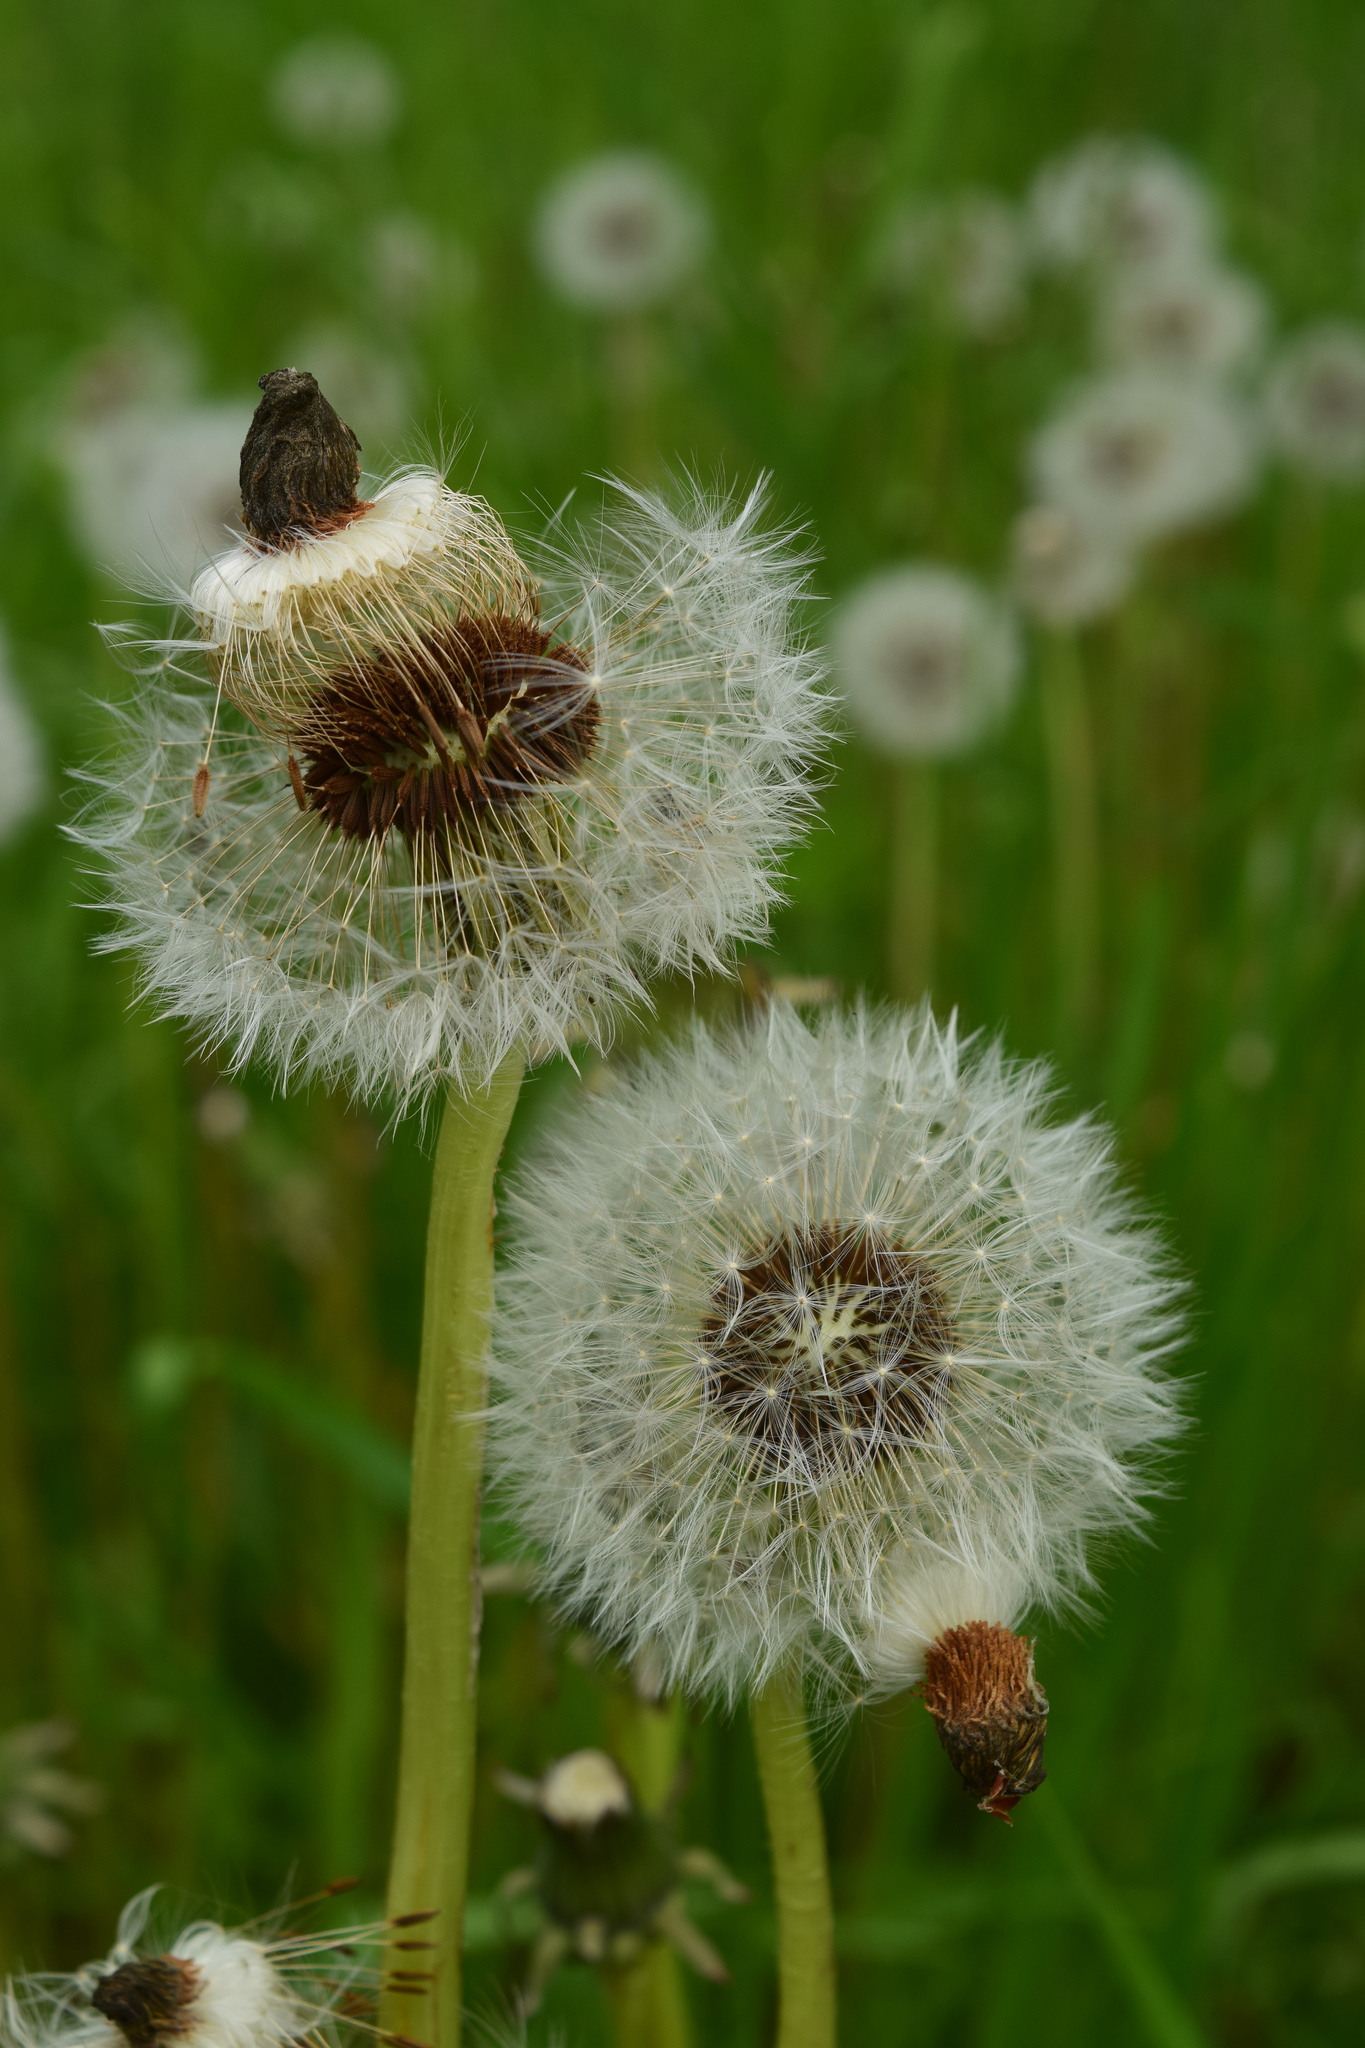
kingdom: Plantae
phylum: Tracheophyta
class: Magnoliopsida
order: Asterales
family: Asteraceae
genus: Taraxacum
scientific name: Taraxacum officinale
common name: Common dandelion
